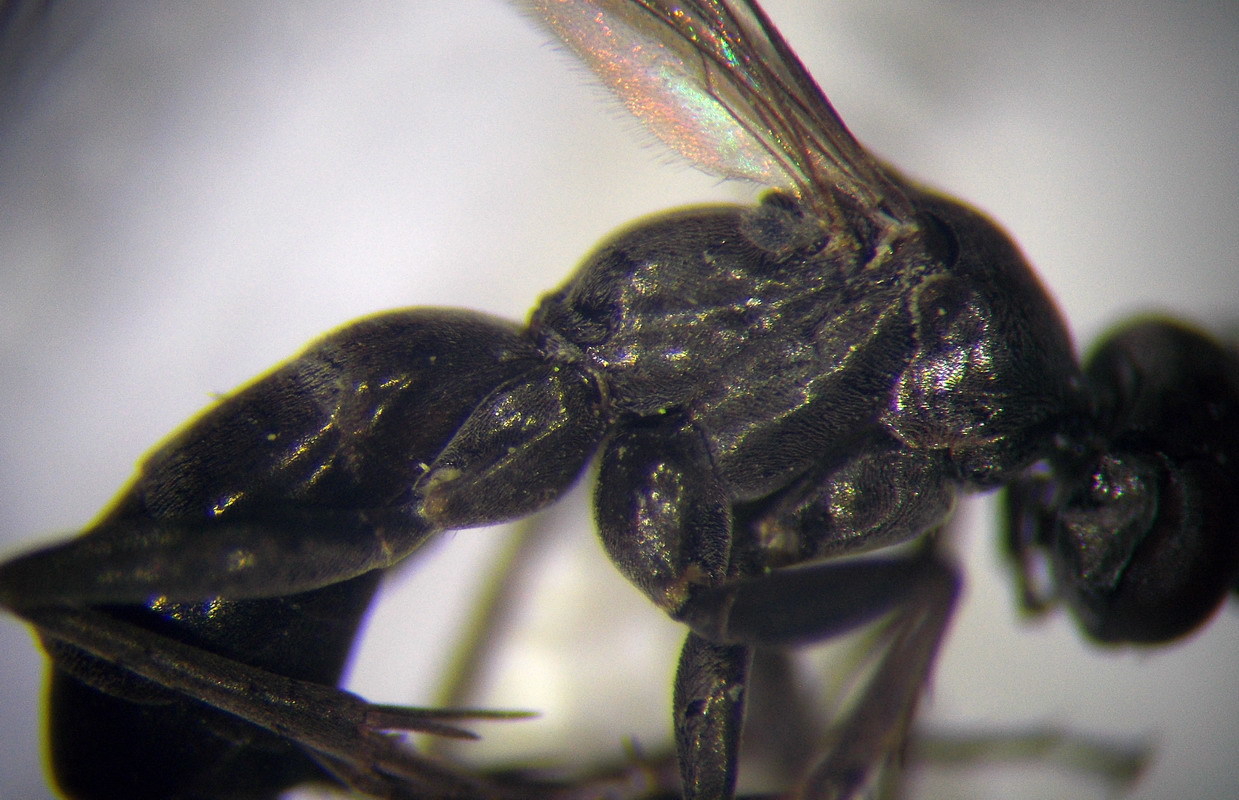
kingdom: Animalia
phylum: Arthropoda
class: Insecta
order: Hymenoptera
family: Pompilidae
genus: Microphadnus
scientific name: Microphadnus pumilus
